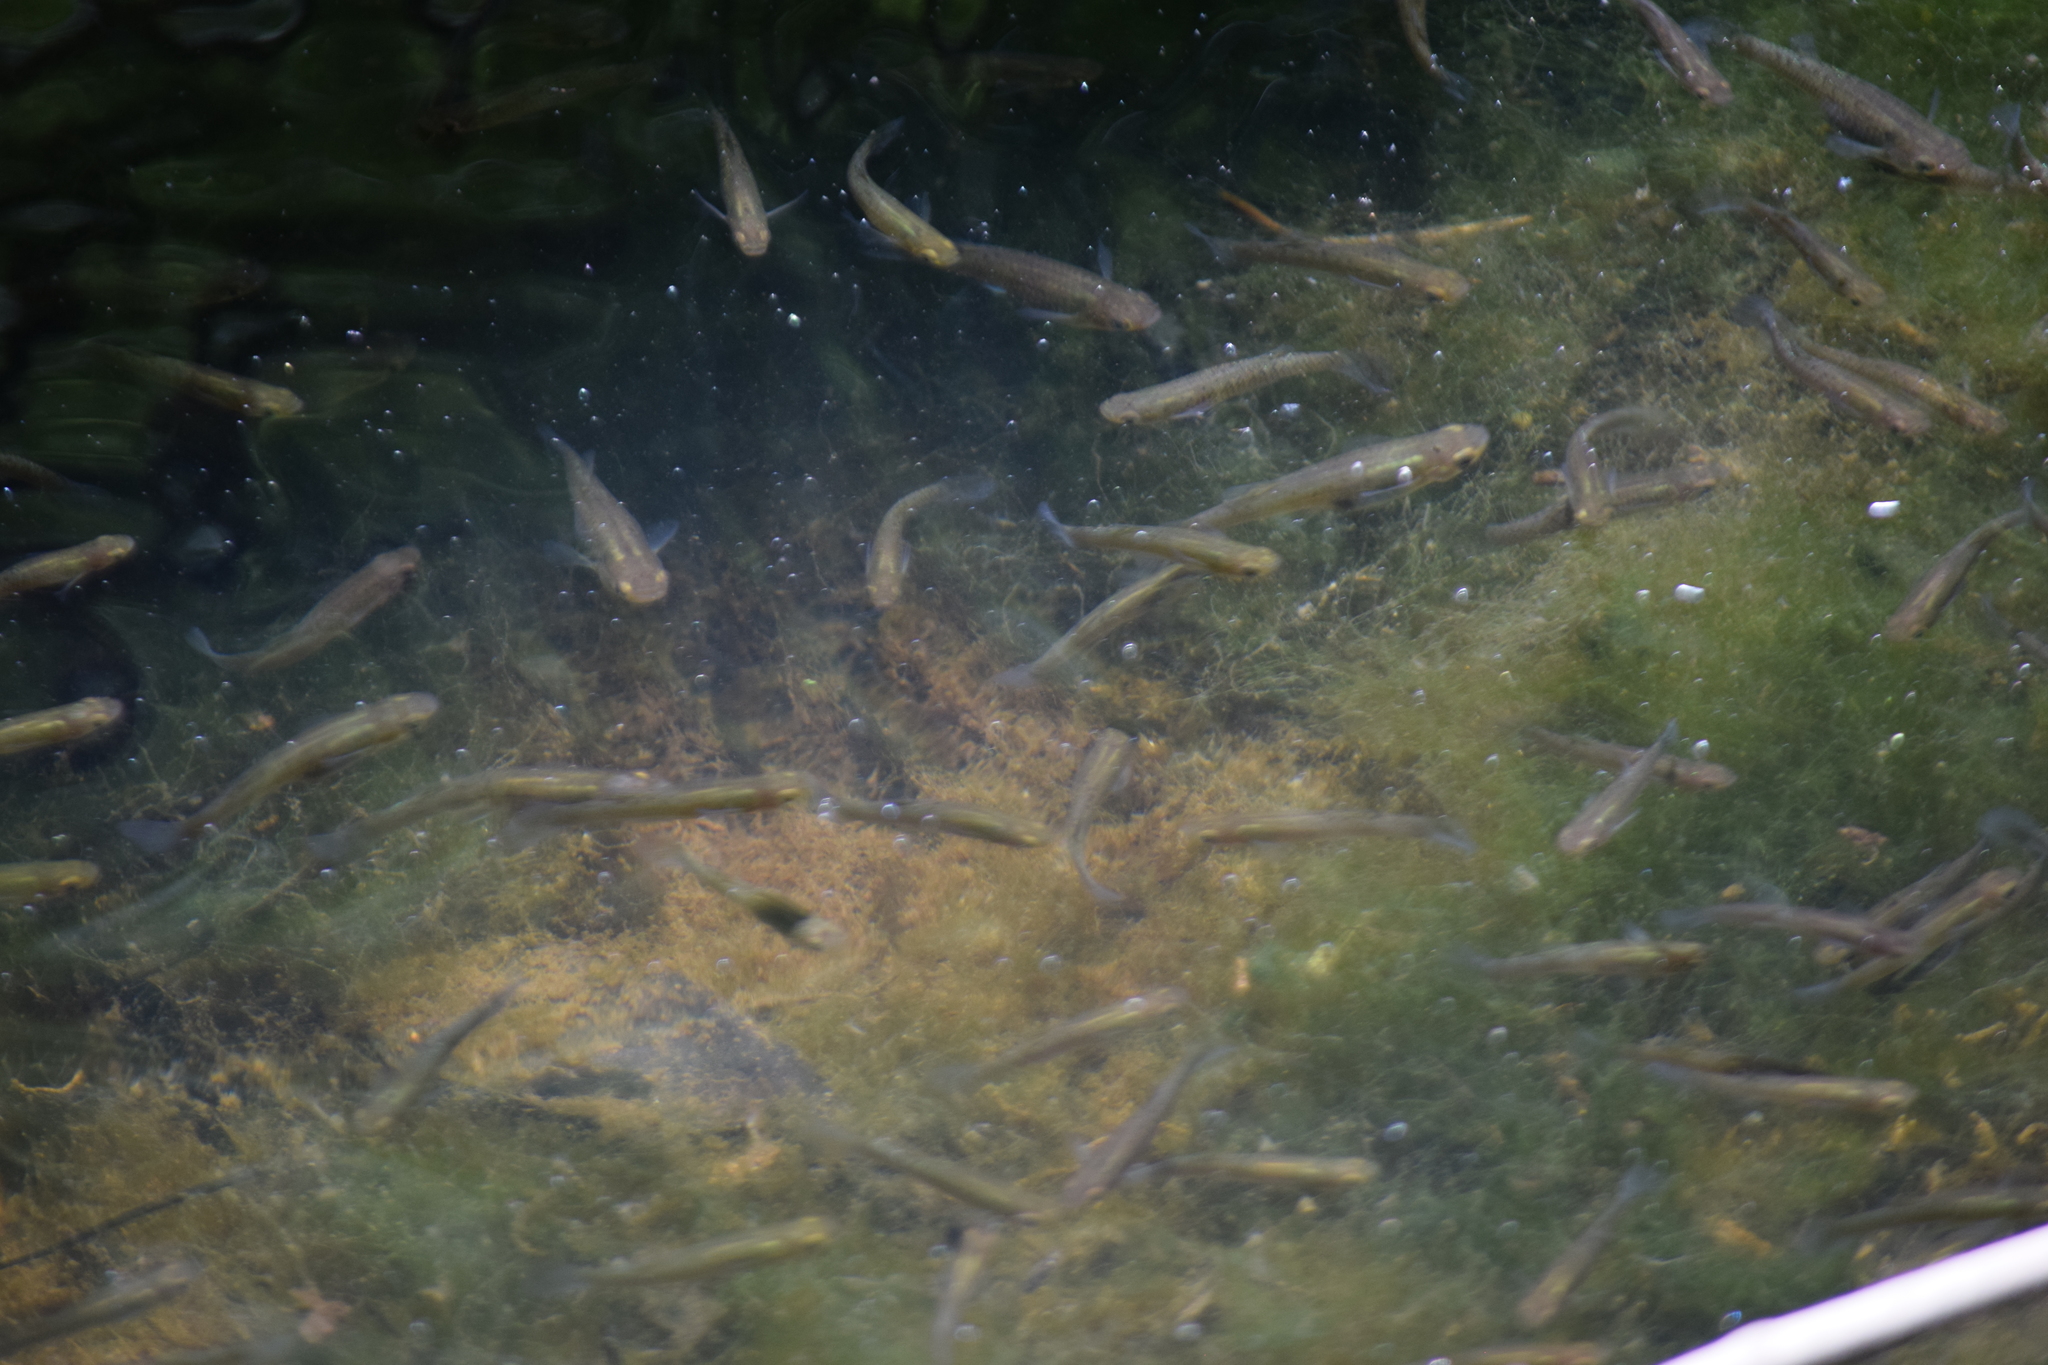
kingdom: Animalia
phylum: Chordata
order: Cyprinodontiformes
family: Poeciliidae
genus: Gambusia
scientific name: Gambusia holbrooki
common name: Eastern mosquitofish
